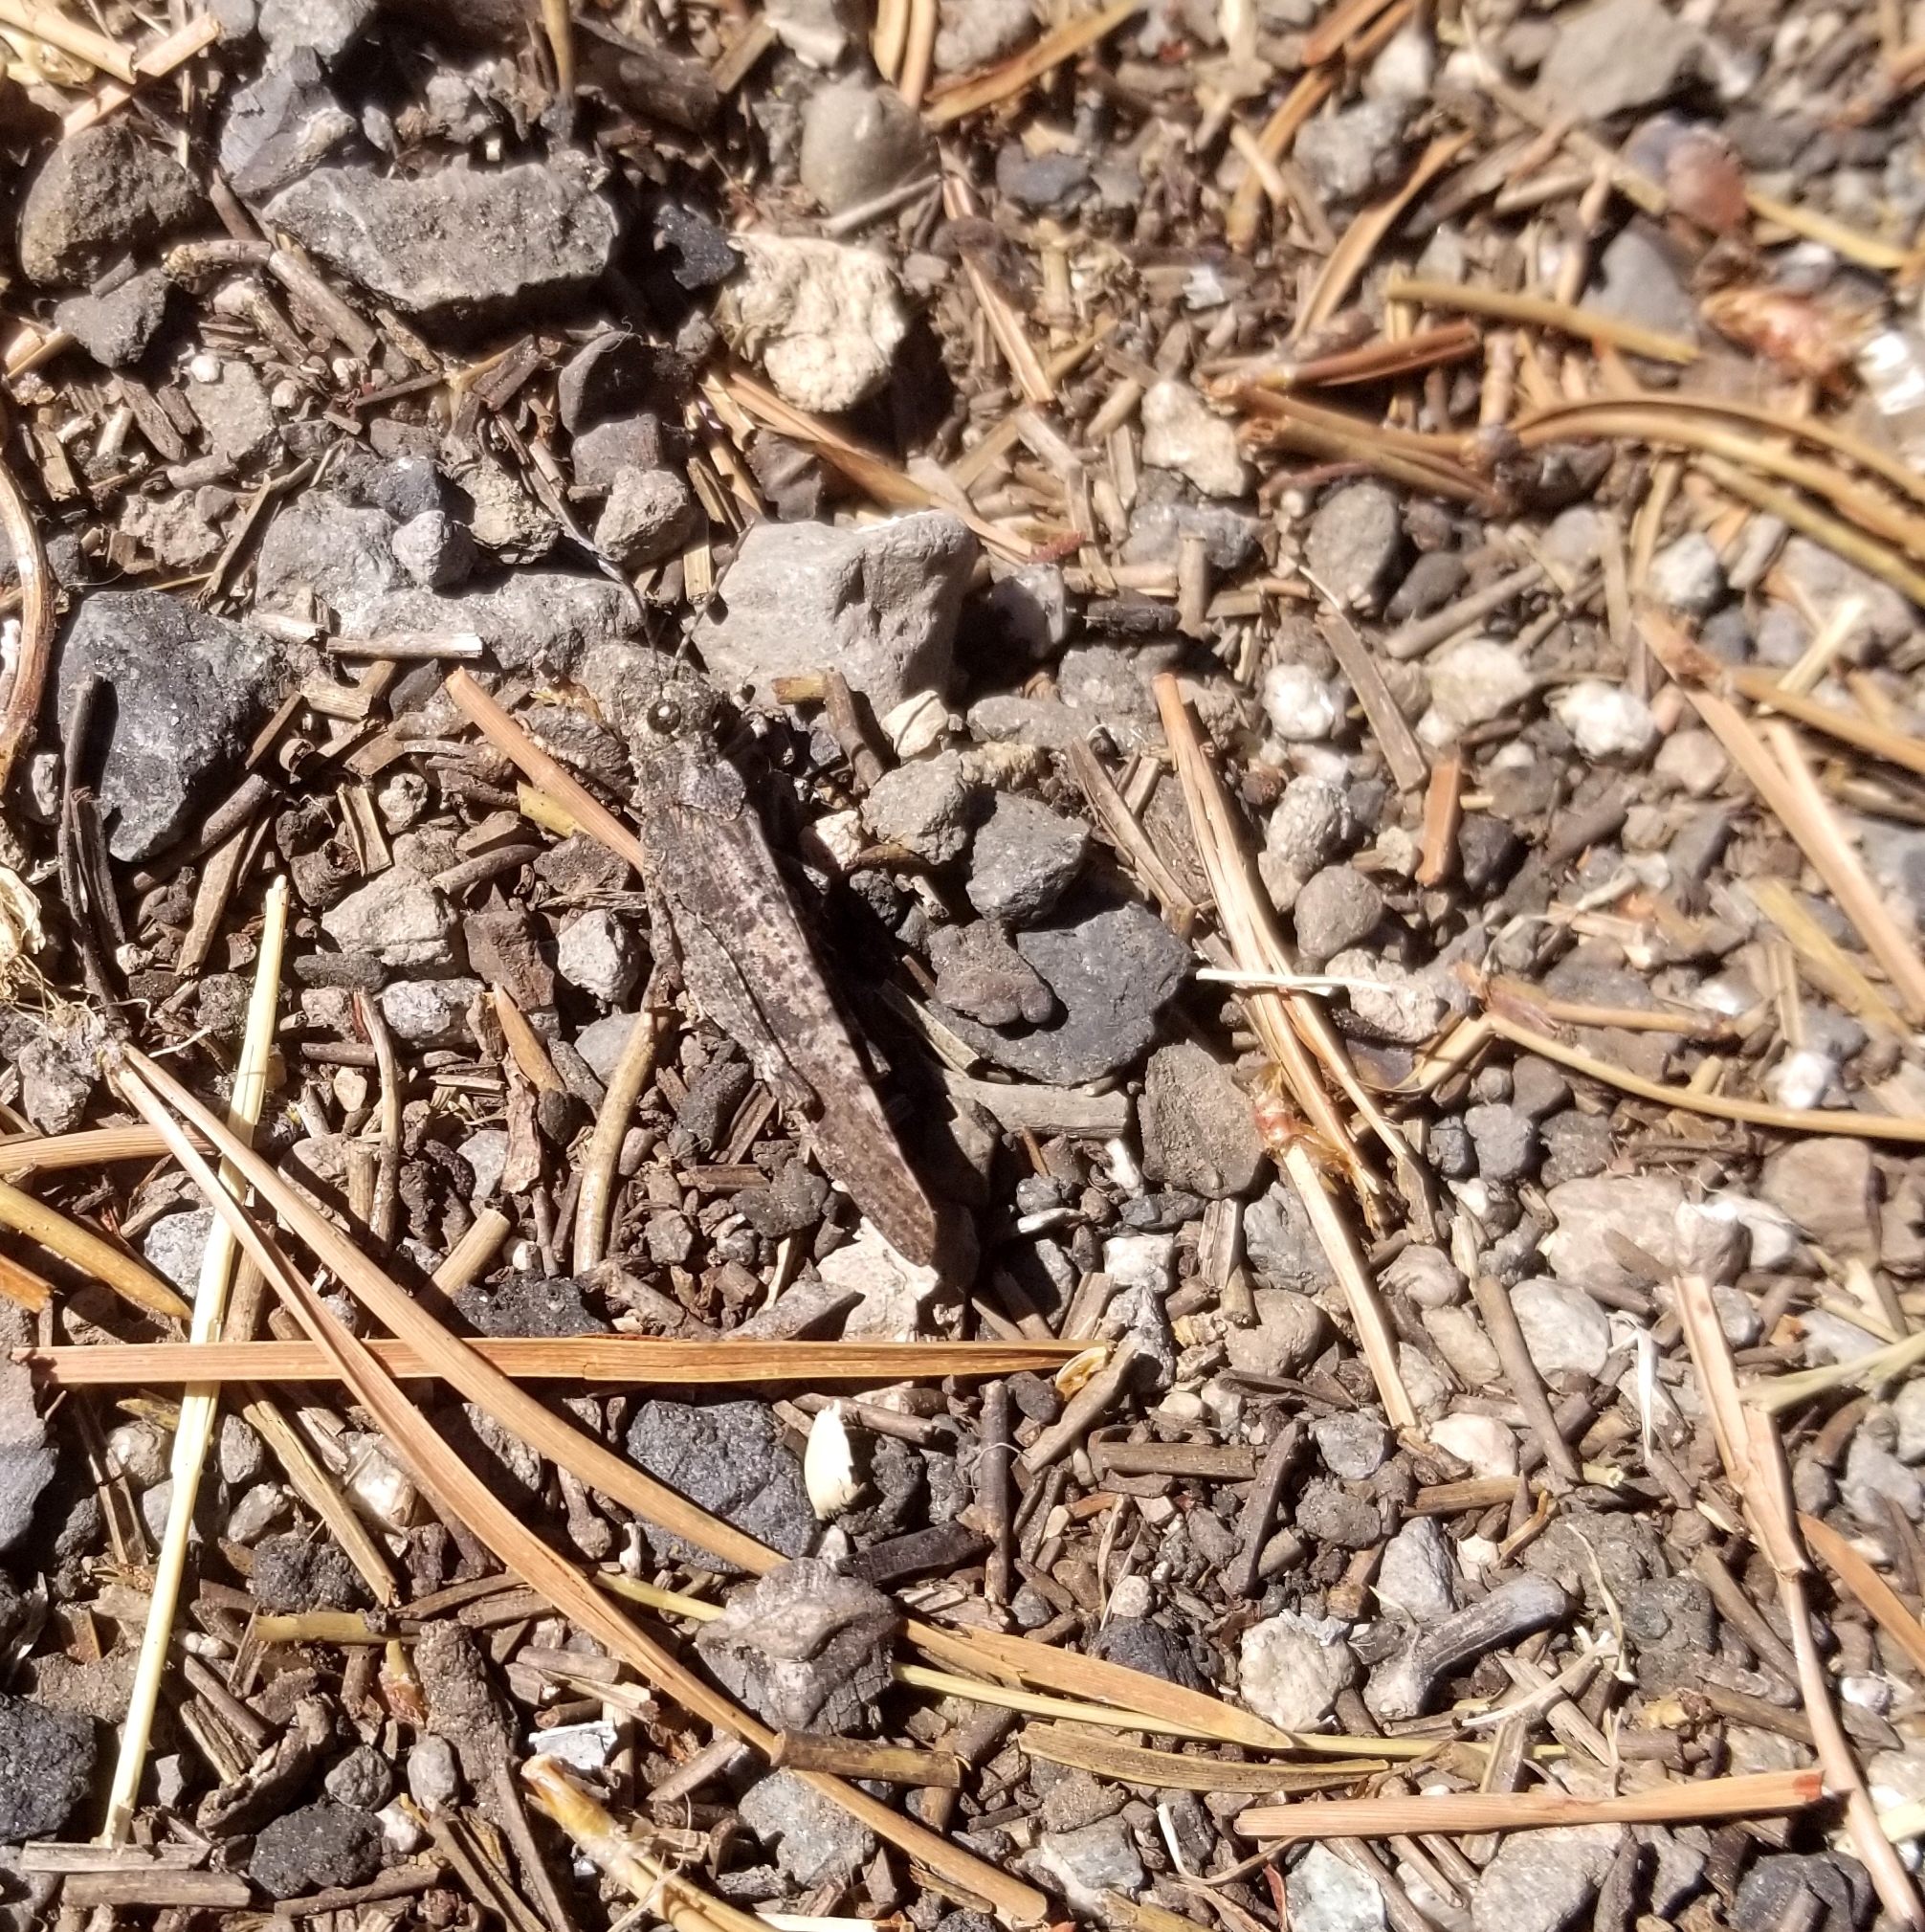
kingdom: Animalia
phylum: Arthropoda
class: Insecta
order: Orthoptera
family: Acrididae
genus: Trimerotropis
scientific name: Trimerotropis verruculata
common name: Crackling forest grasshopper
